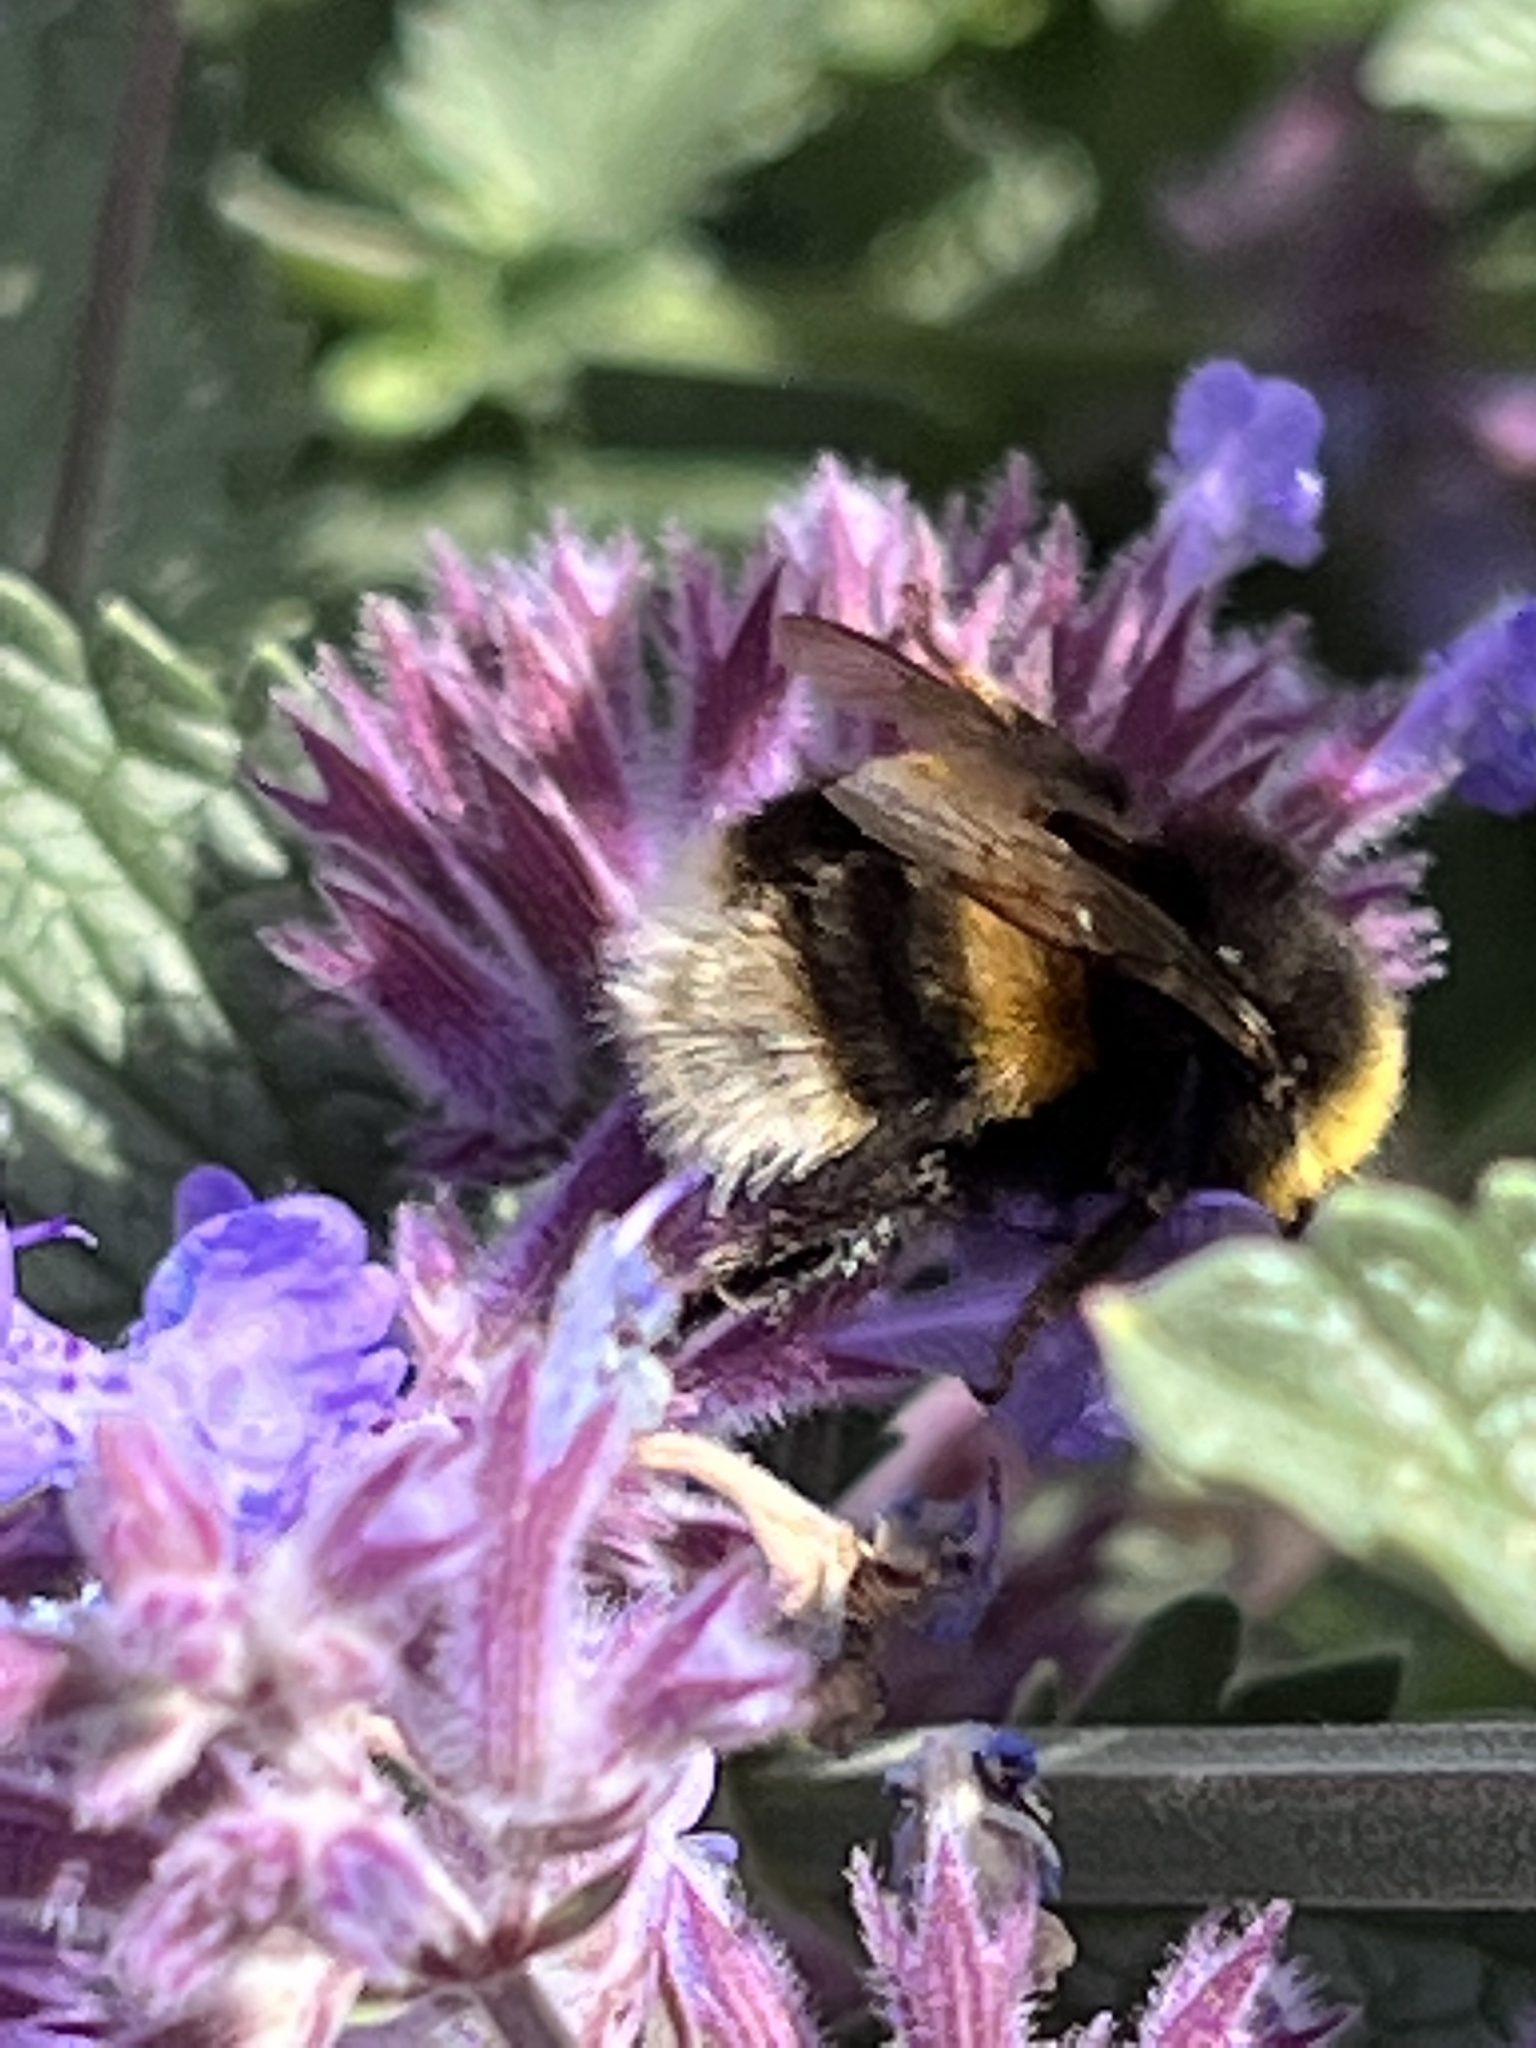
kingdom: Animalia
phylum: Arthropoda
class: Insecta
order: Hymenoptera
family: Apidae
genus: Bombus
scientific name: Bombus terrestris
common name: Buff-tailed bumblebee
